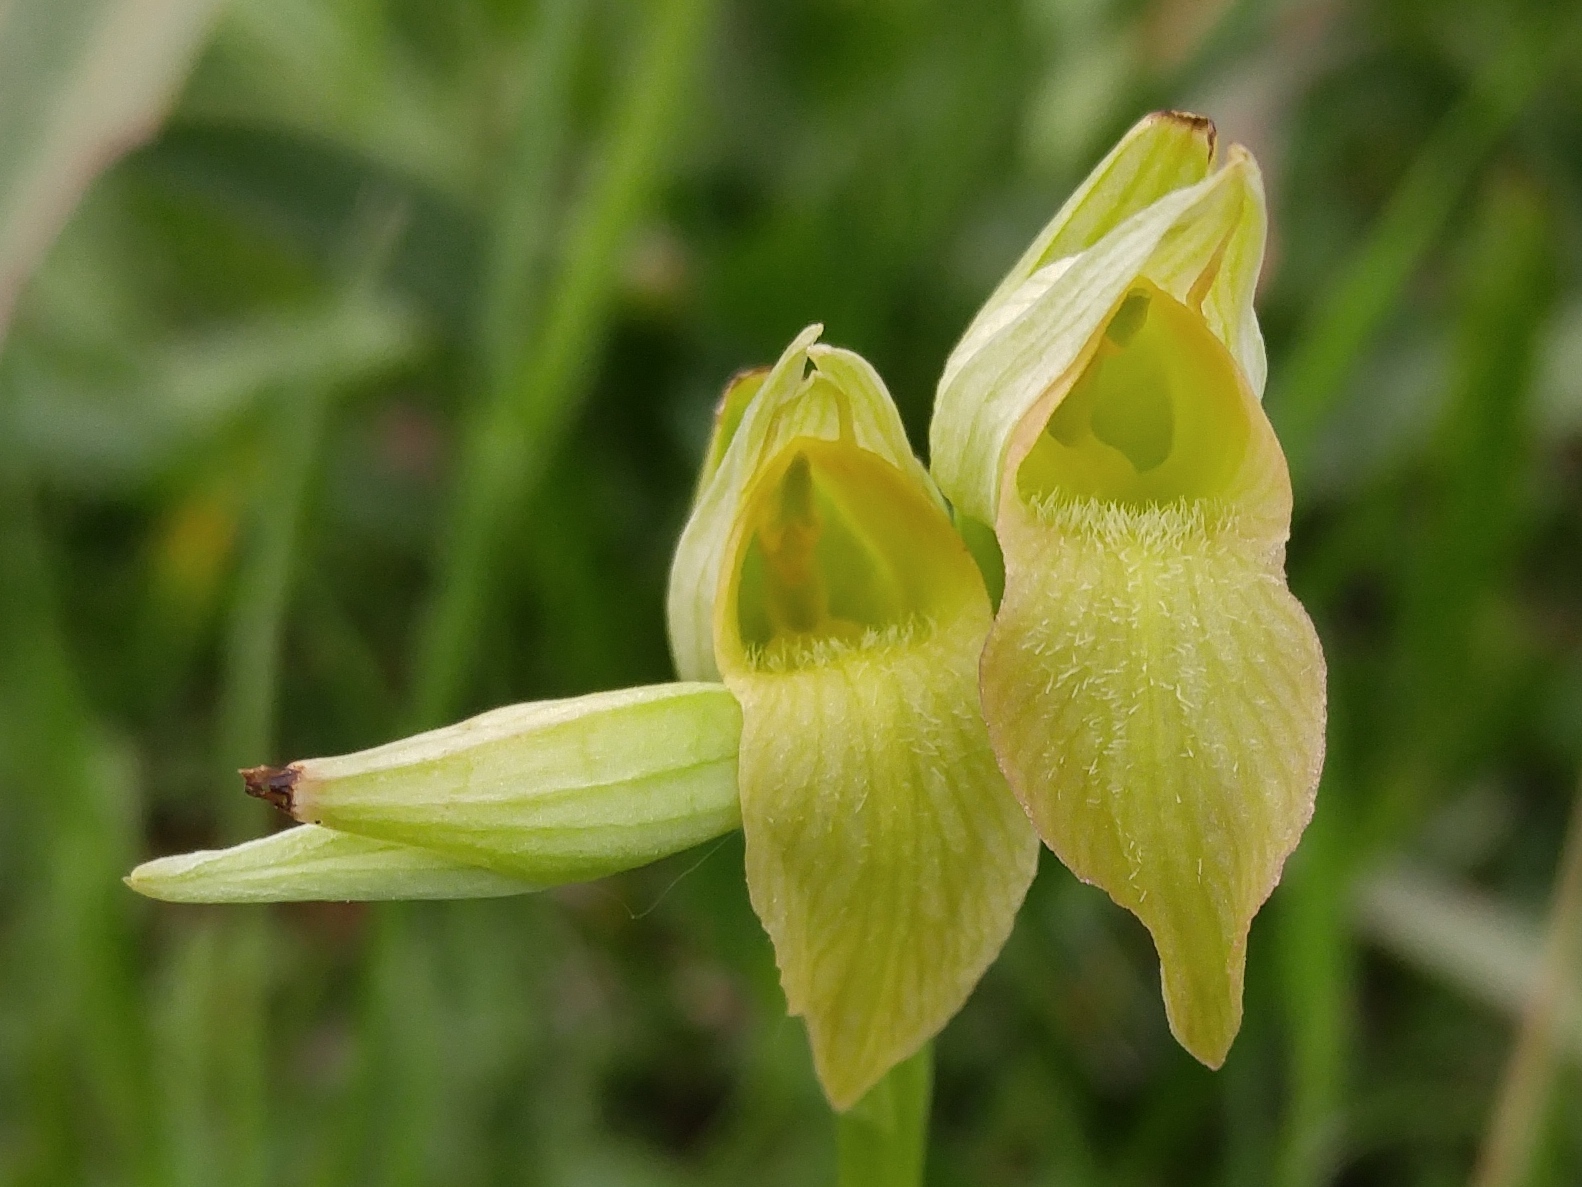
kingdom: Plantae
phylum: Tracheophyta
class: Liliopsida
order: Asparagales
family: Orchidaceae
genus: Serapias
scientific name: Serapias lingua
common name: Tongue-orchid
